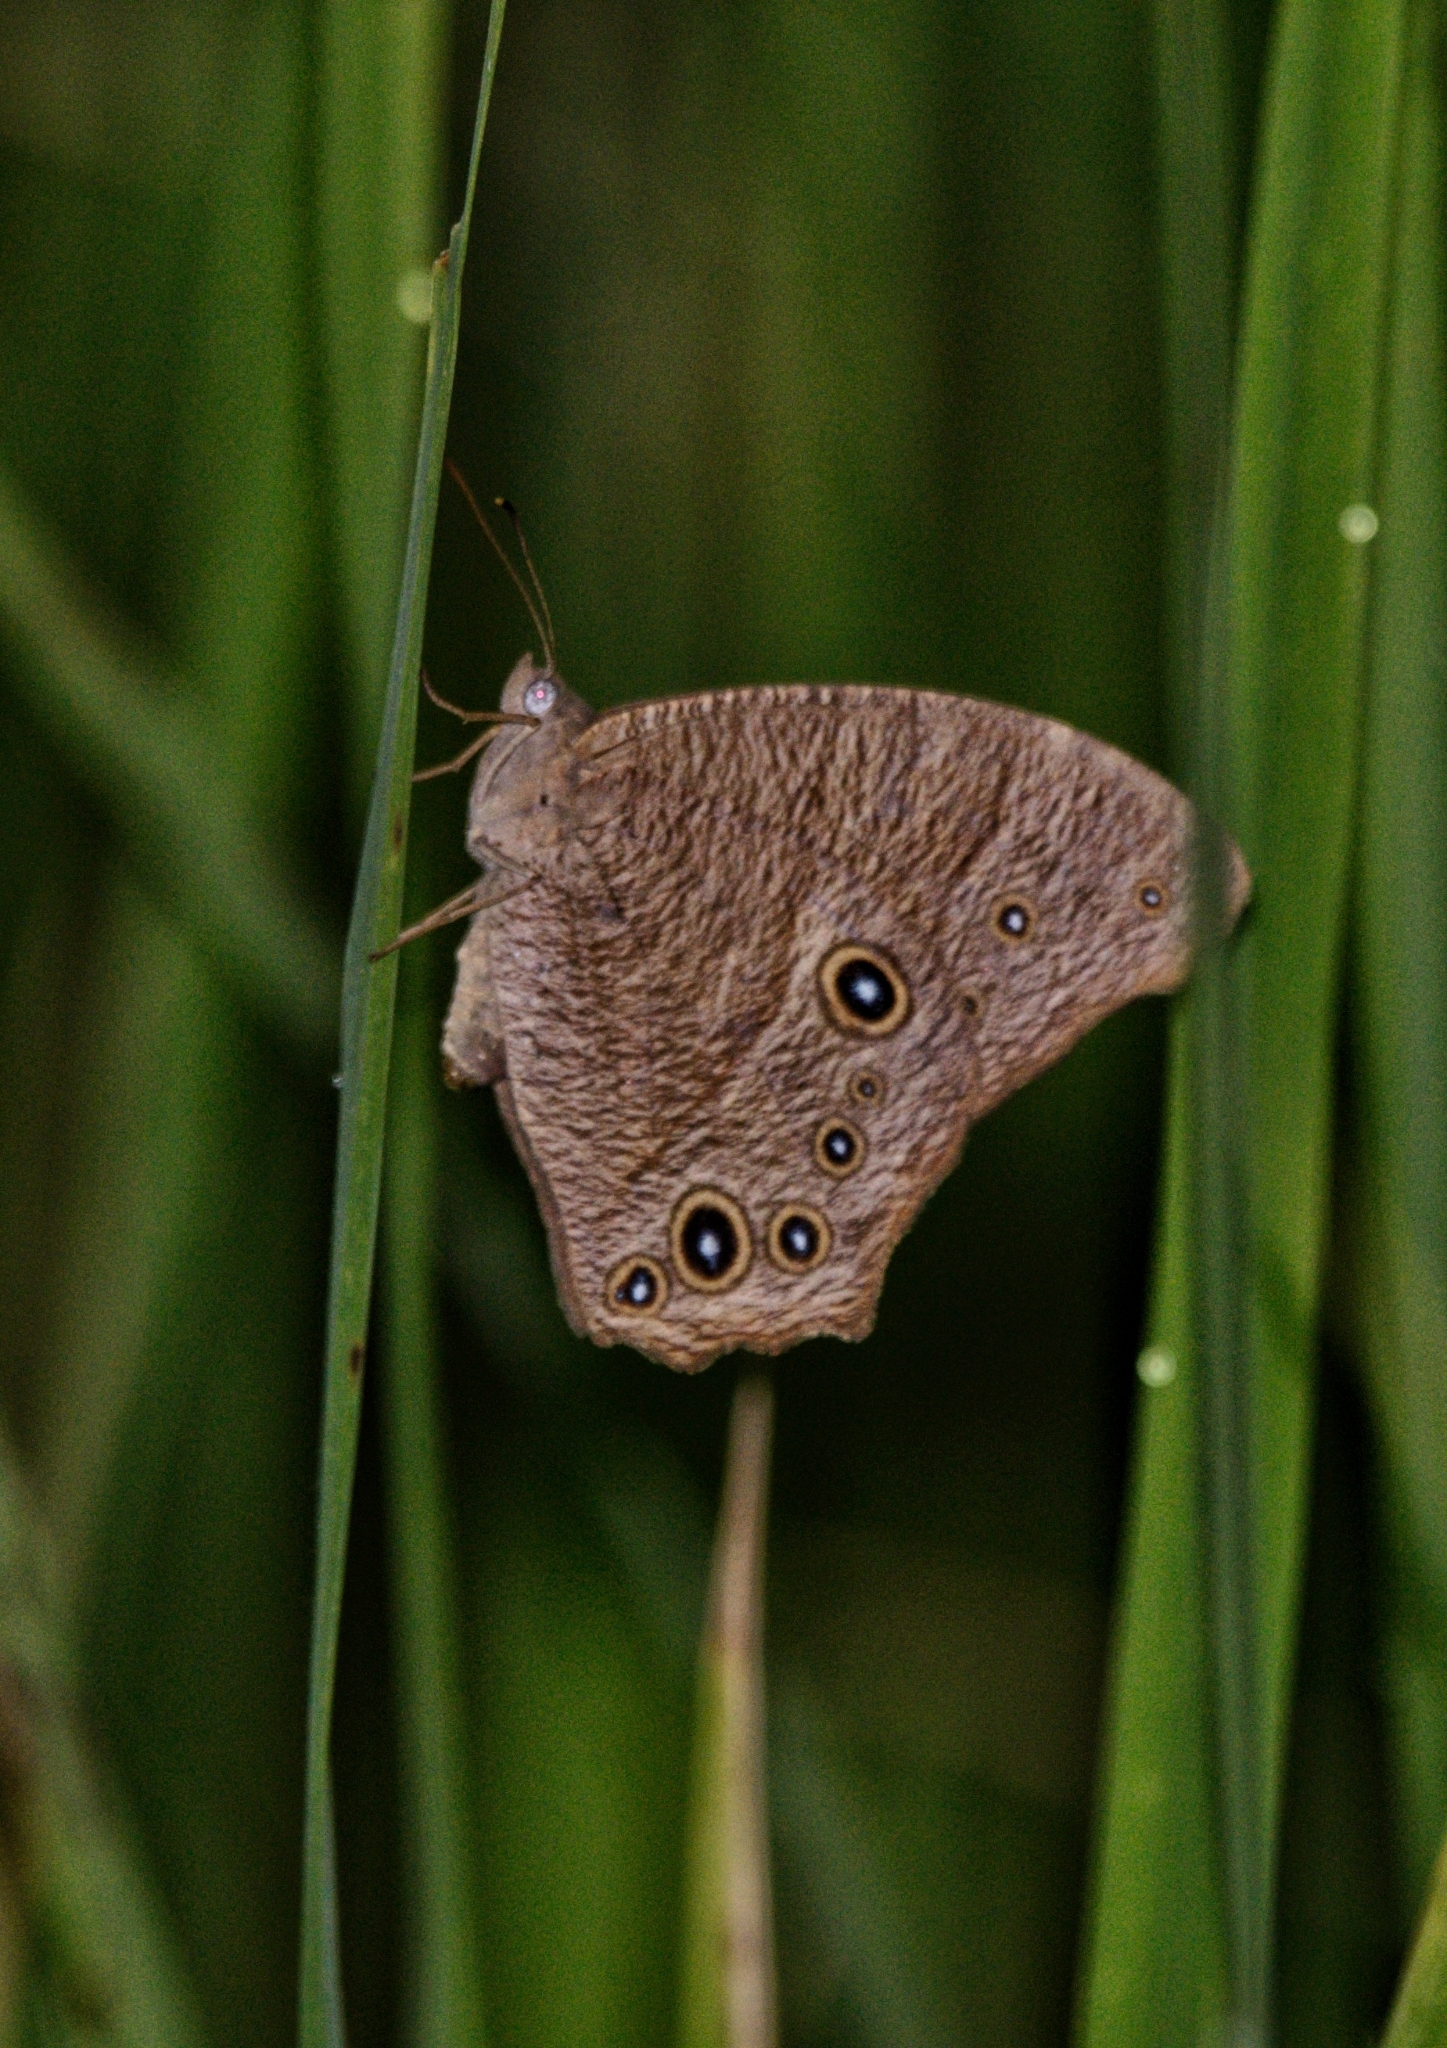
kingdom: Animalia
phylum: Arthropoda
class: Insecta
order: Lepidoptera
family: Nymphalidae
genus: Melanitis
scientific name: Melanitis leda
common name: Twilight brown
